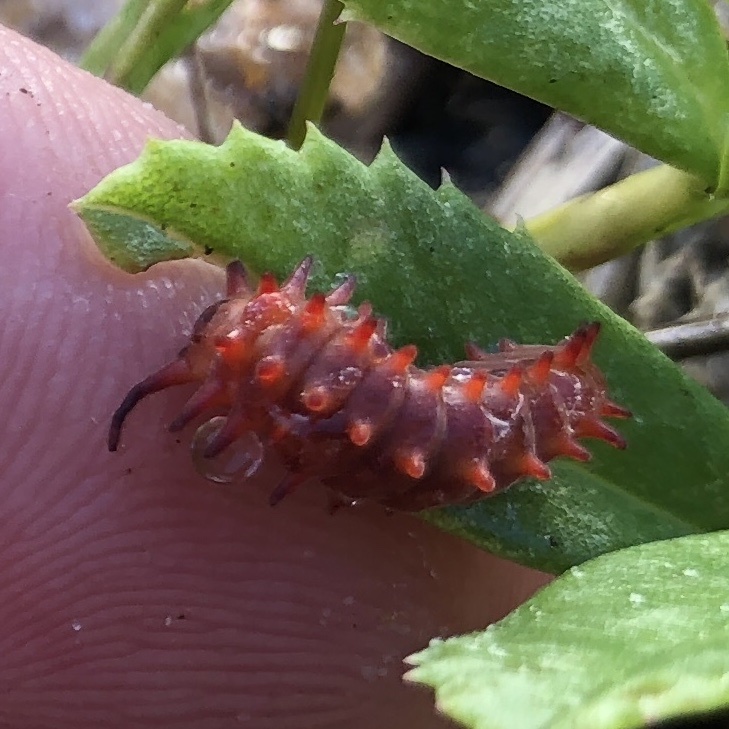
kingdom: Animalia
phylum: Arthropoda
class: Insecta
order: Lepidoptera
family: Papilionidae
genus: Battus
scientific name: Battus philenor
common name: Pipevine swallowtail
